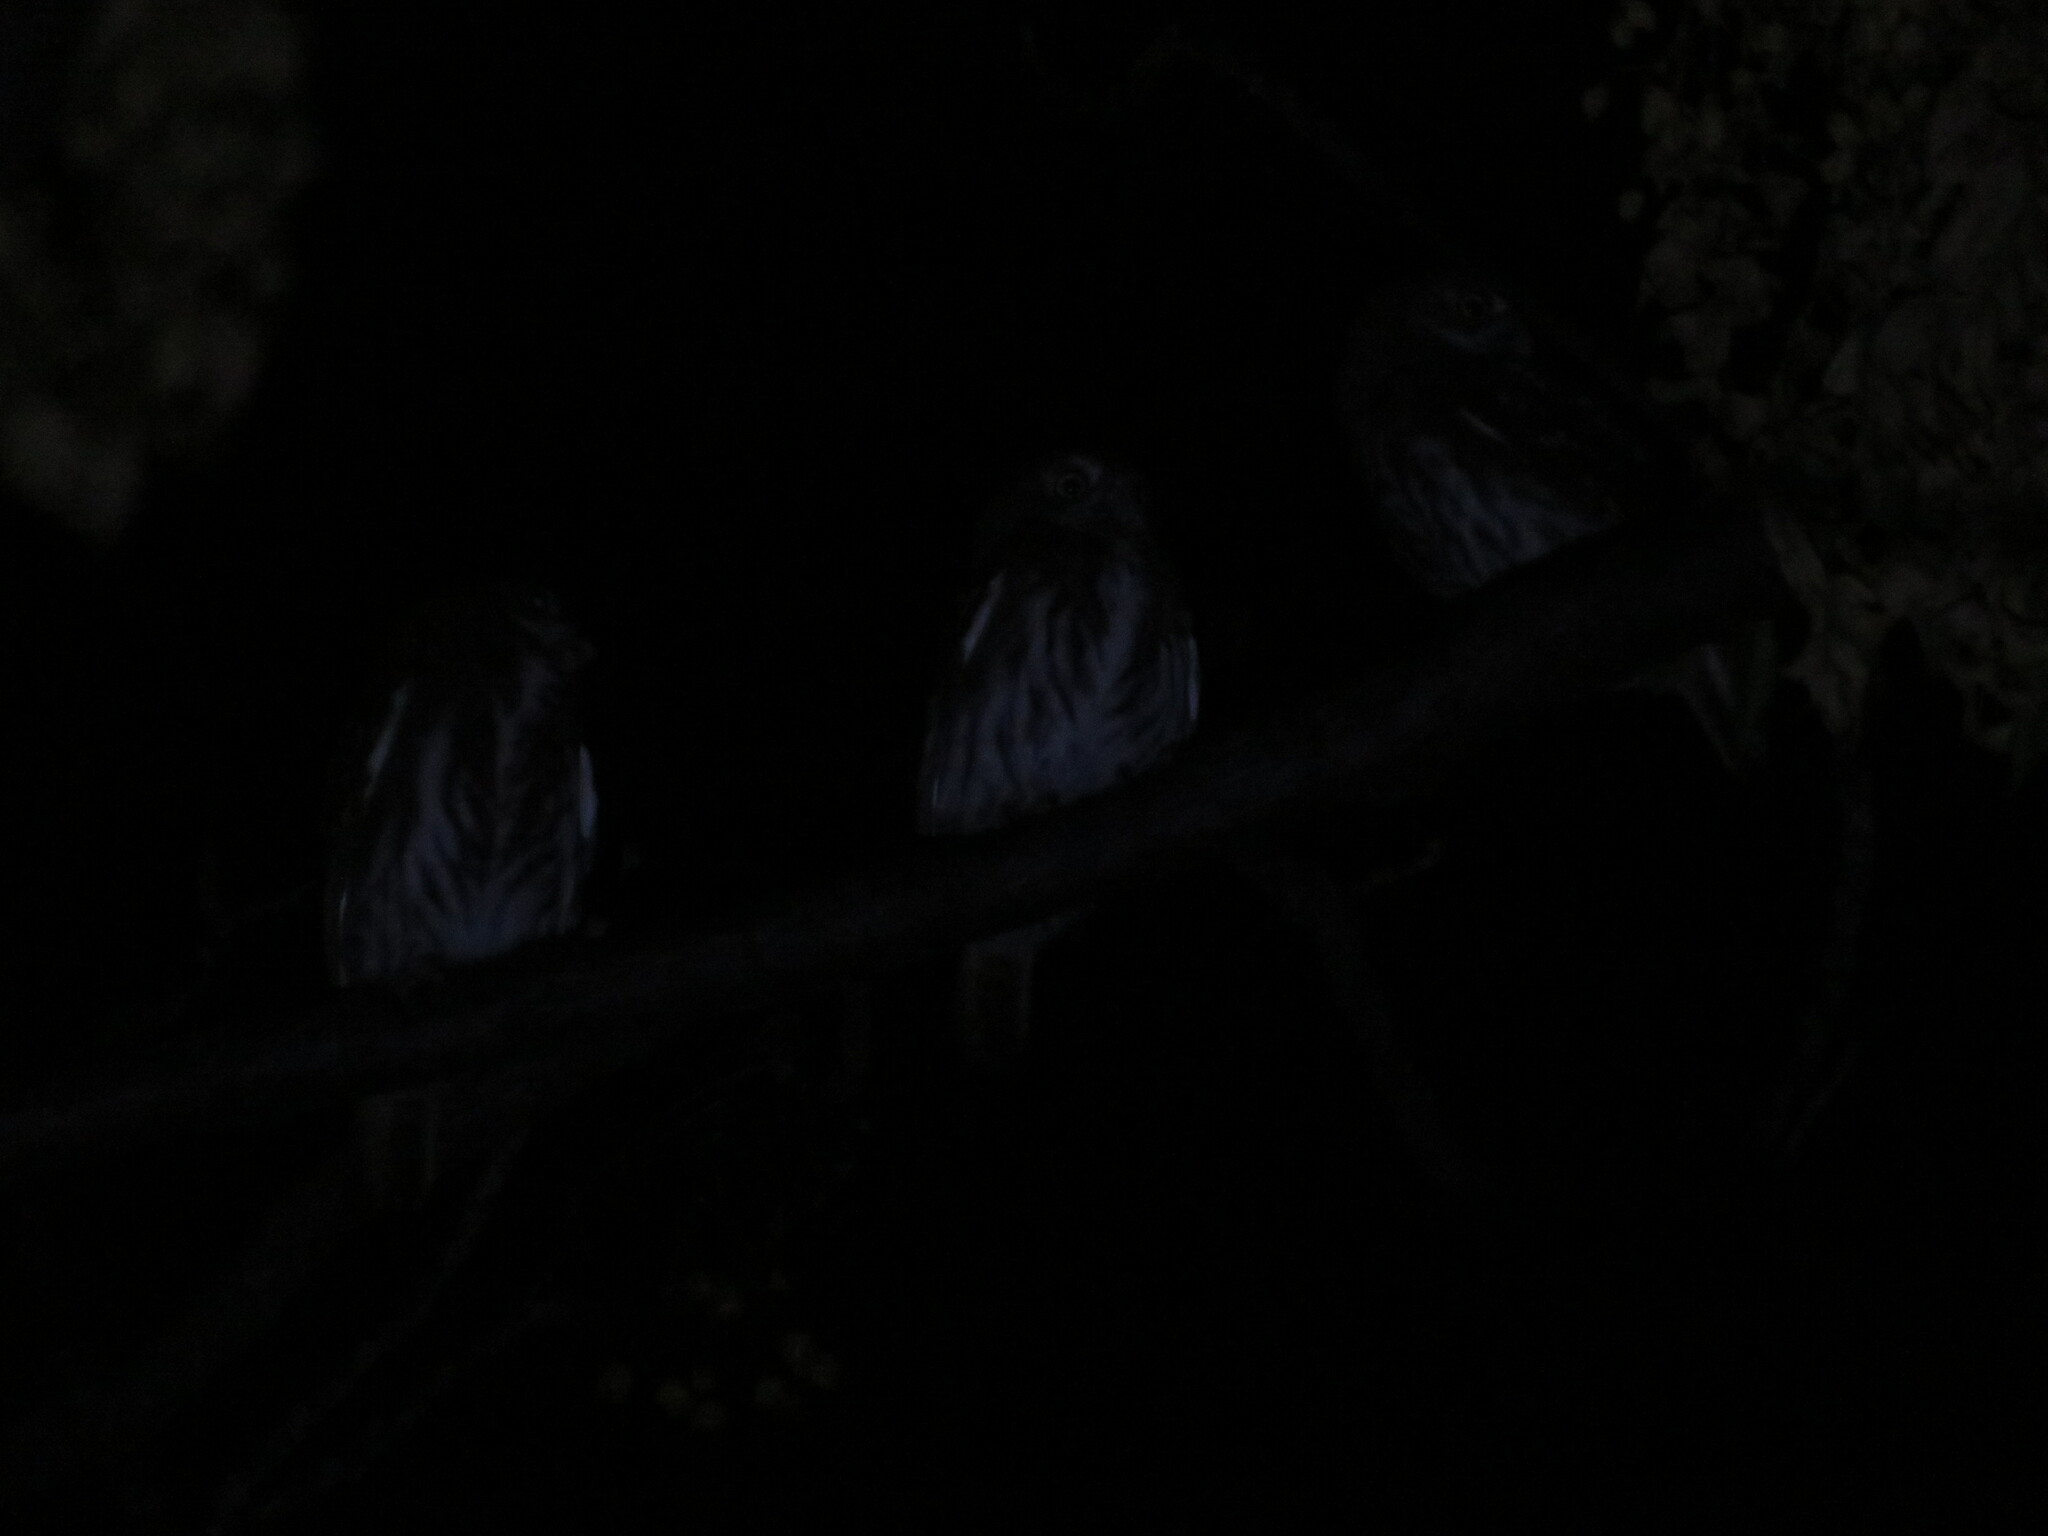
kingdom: Animalia
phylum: Chordata
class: Aves
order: Strigiformes
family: Strigidae
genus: Glaucidium
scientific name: Glaucidium brasilianum
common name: Ferruginous pygmy-owl
